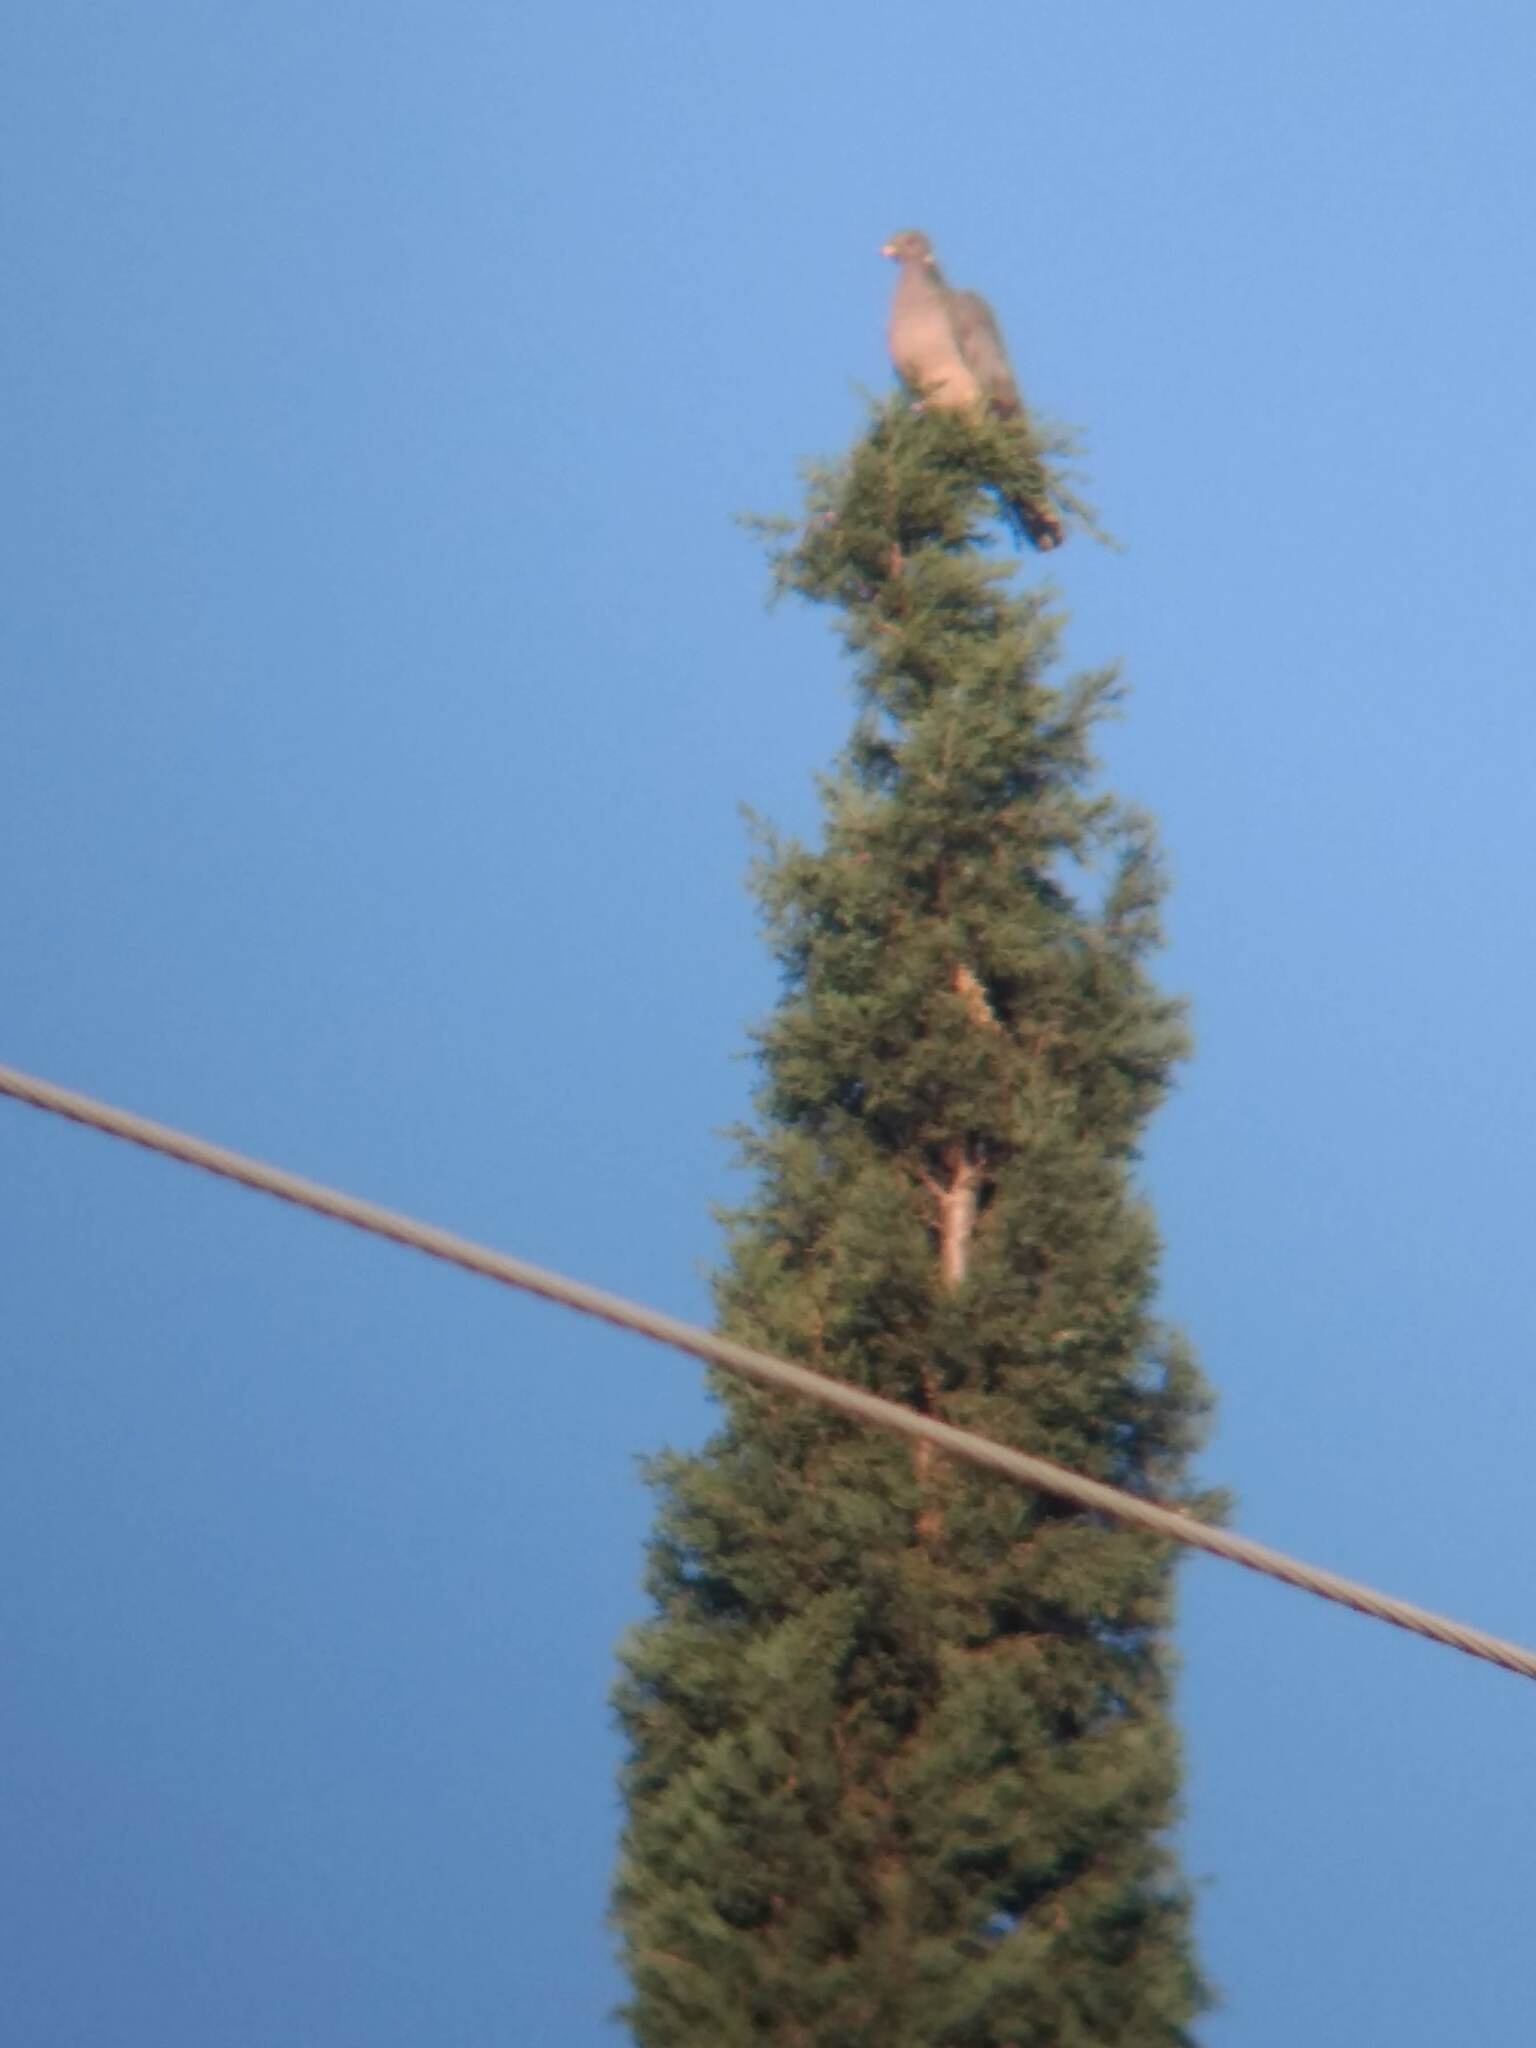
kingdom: Animalia
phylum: Chordata
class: Aves
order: Columbiformes
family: Columbidae
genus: Patagioenas
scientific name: Patagioenas fasciata
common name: Band-tailed pigeon
